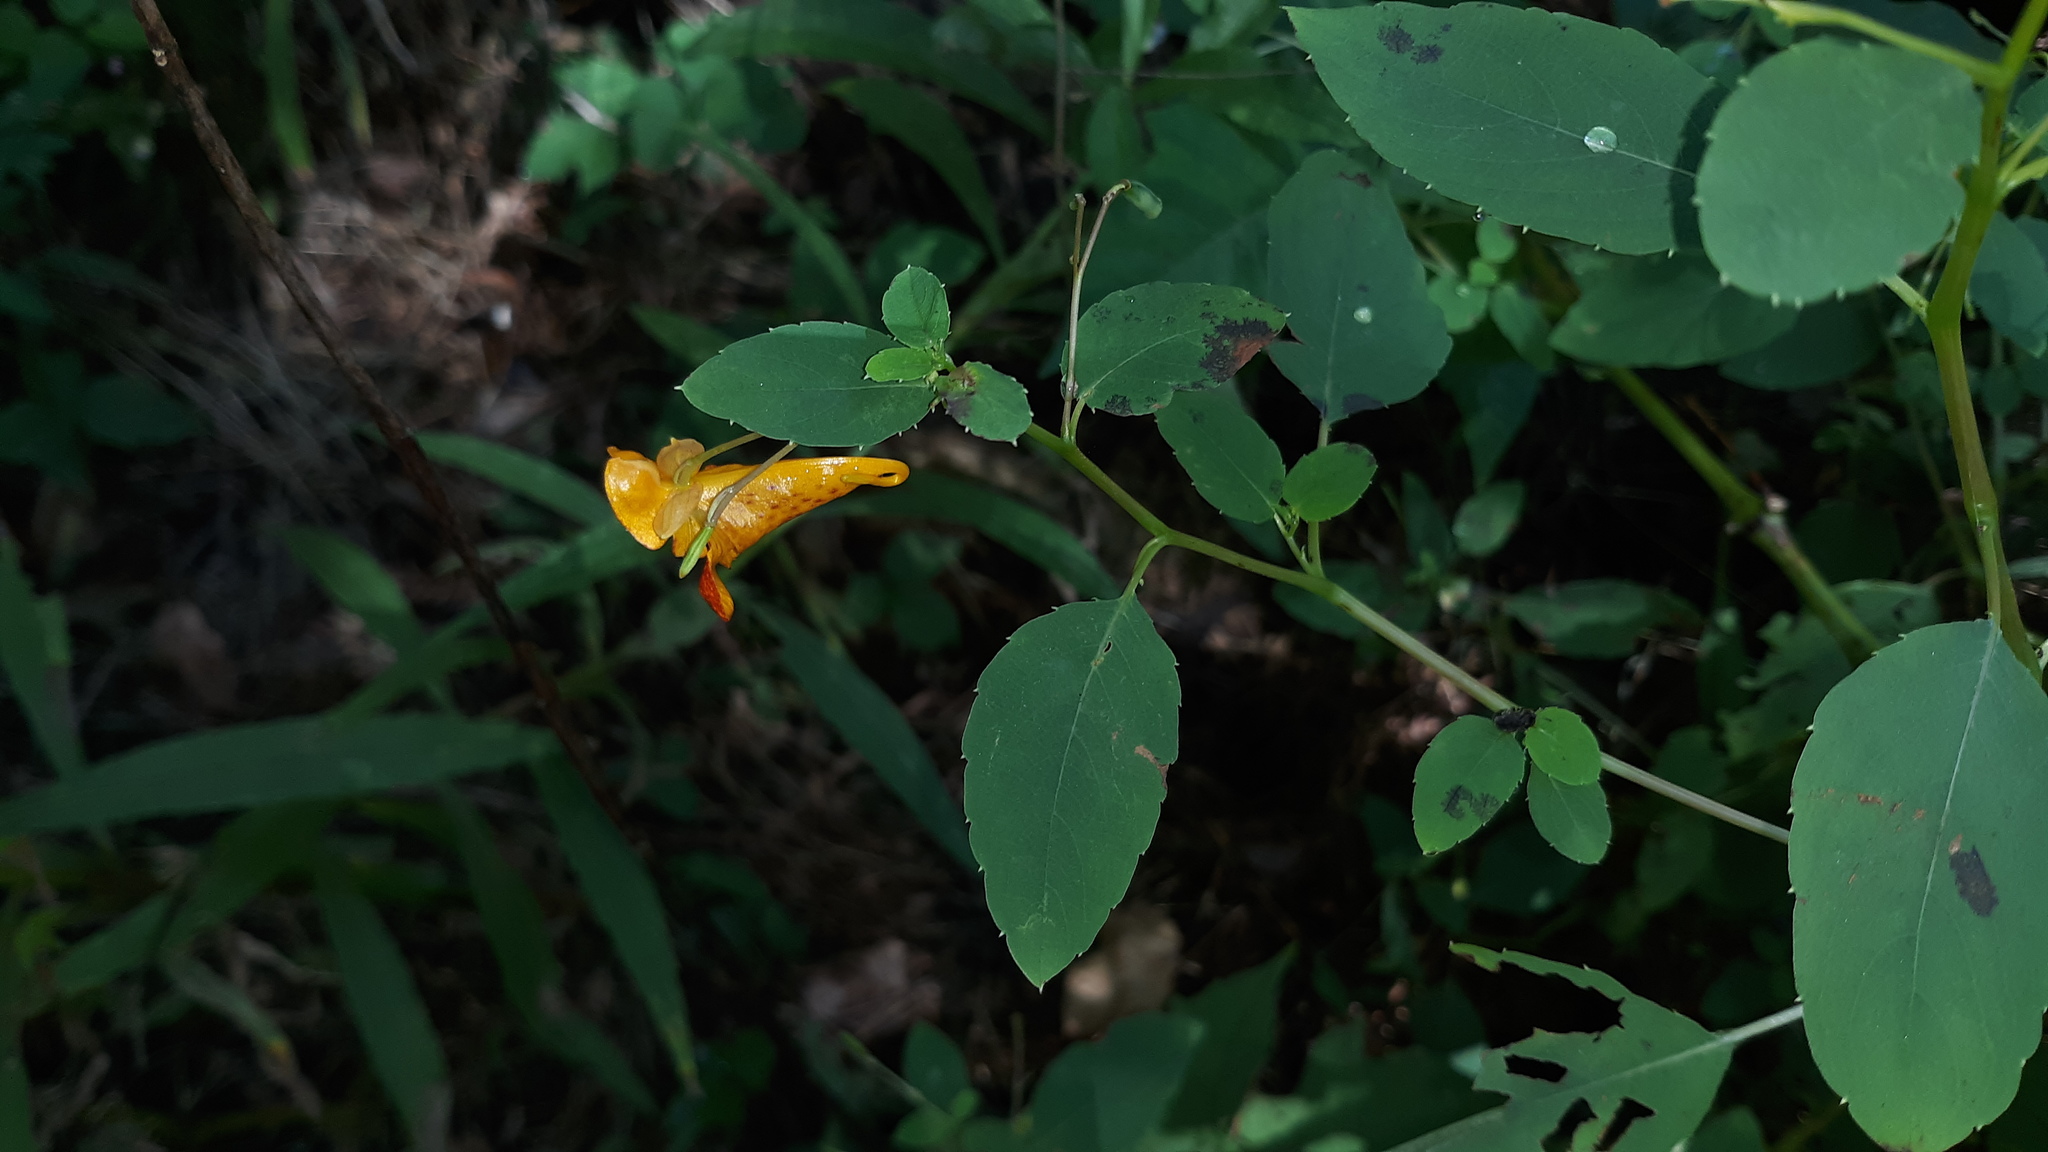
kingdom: Plantae
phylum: Tracheophyta
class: Magnoliopsida
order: Ericales
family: Balsaminaceae
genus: Impatiens
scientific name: Impatiens capensis
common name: Orange balsam
